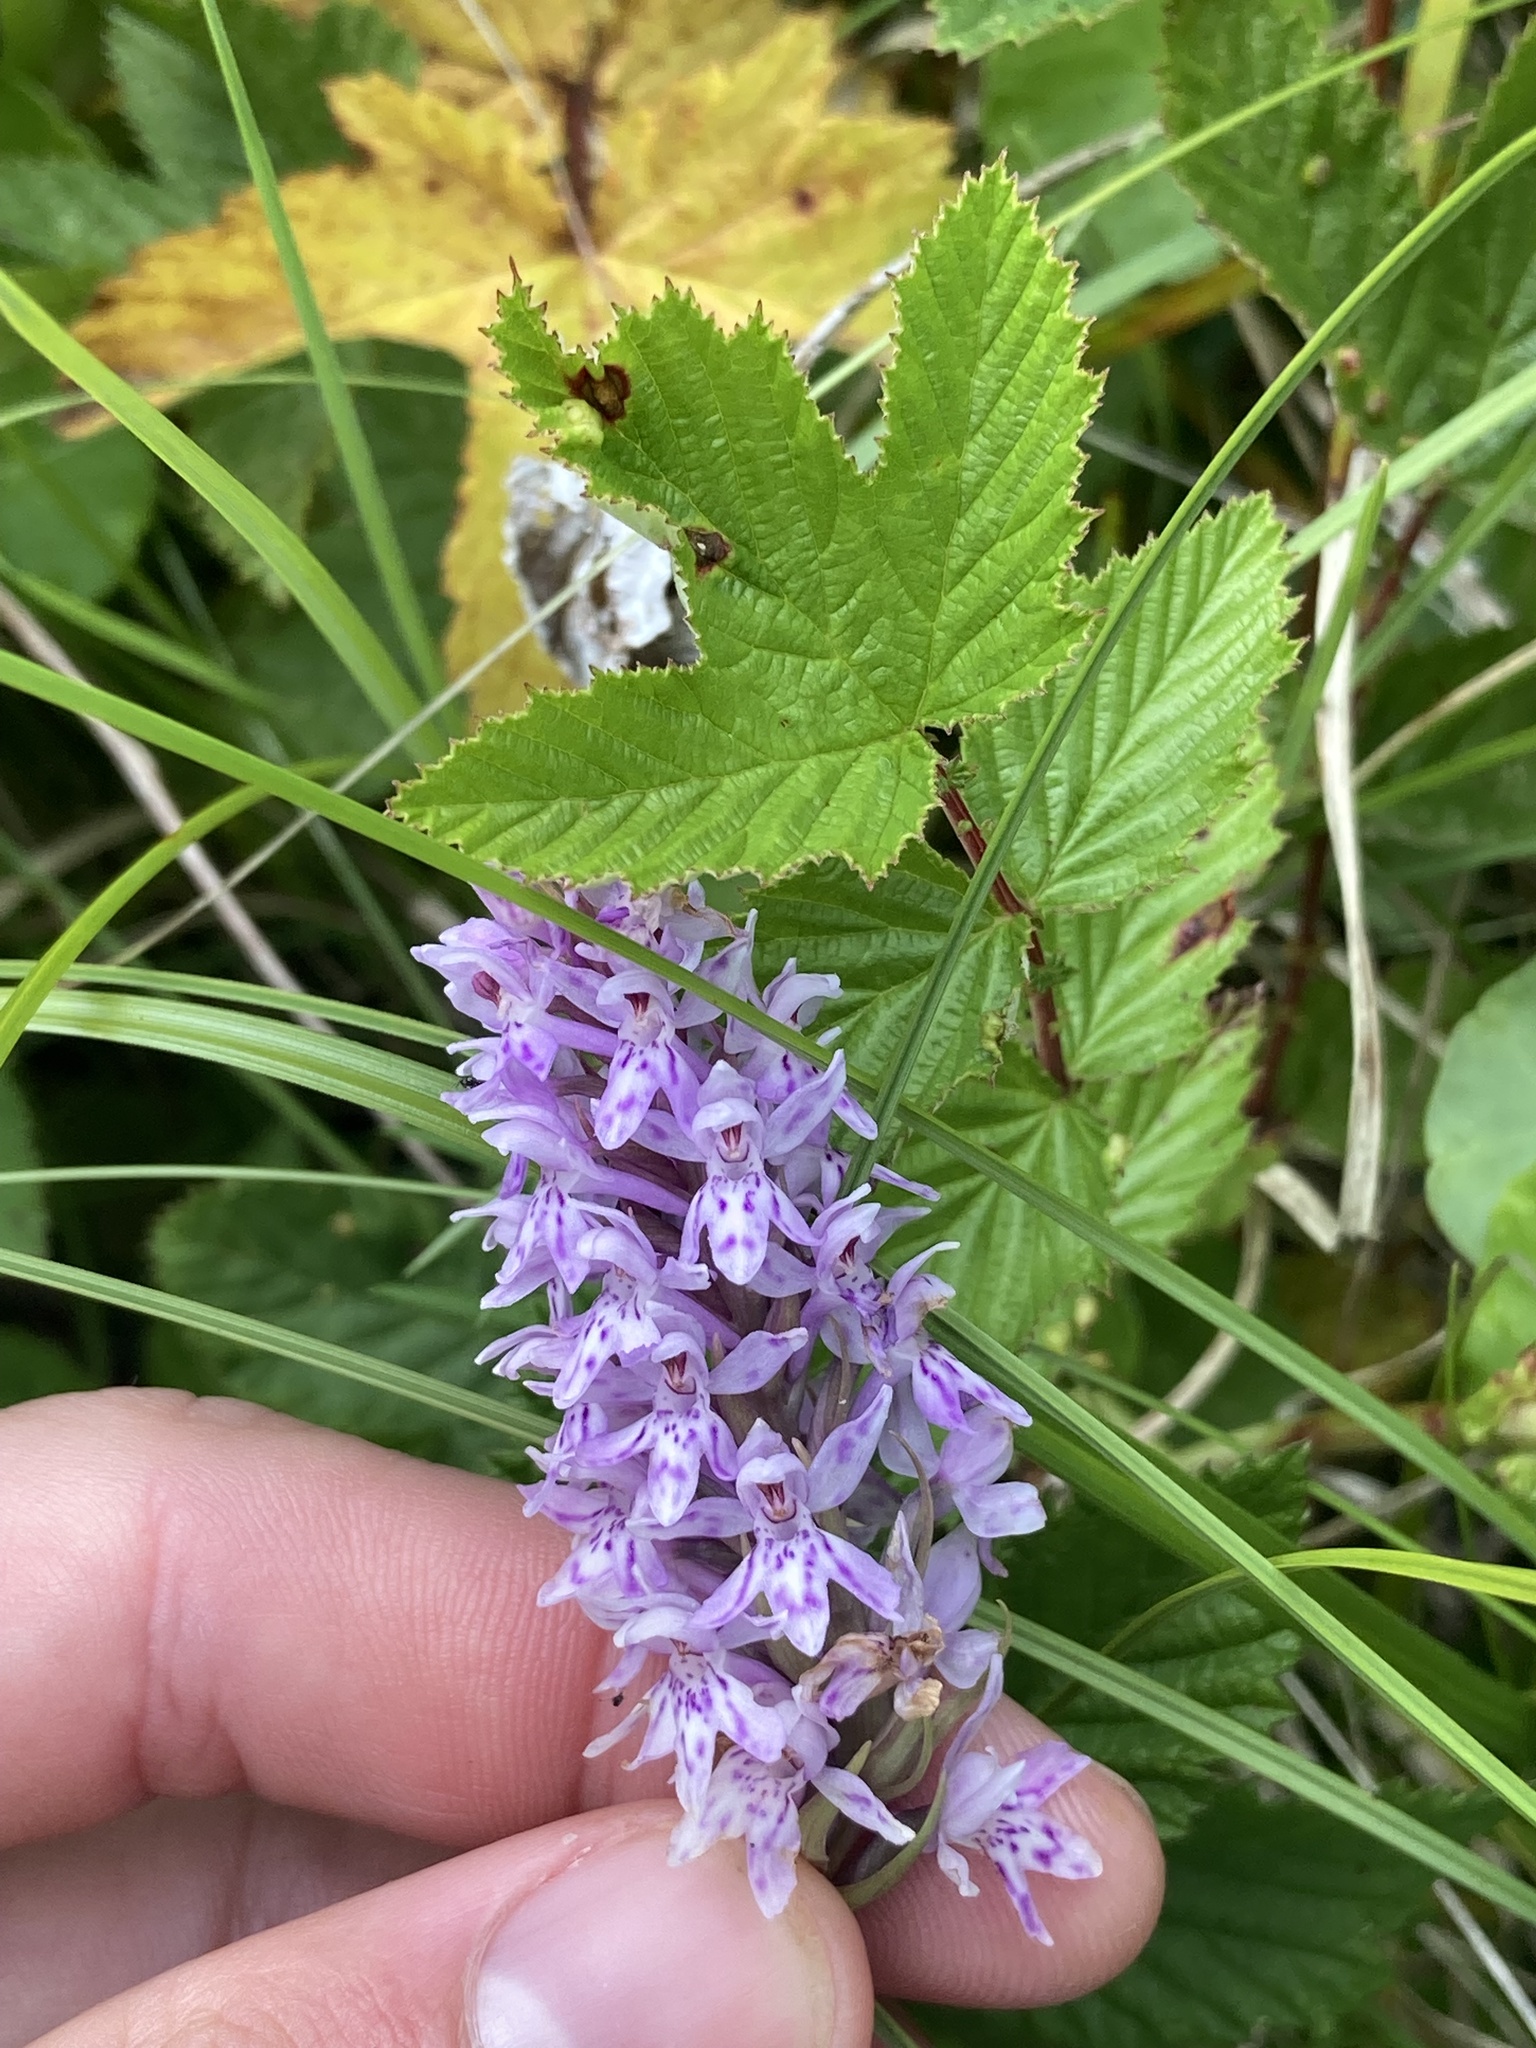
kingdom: Plantae
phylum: Tracheophyta
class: Liliopsida
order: Asparagales
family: Orchidaceae
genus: Dactylorhiza
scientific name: Dactylorhiza maculata
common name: Heath spotted-orchid
